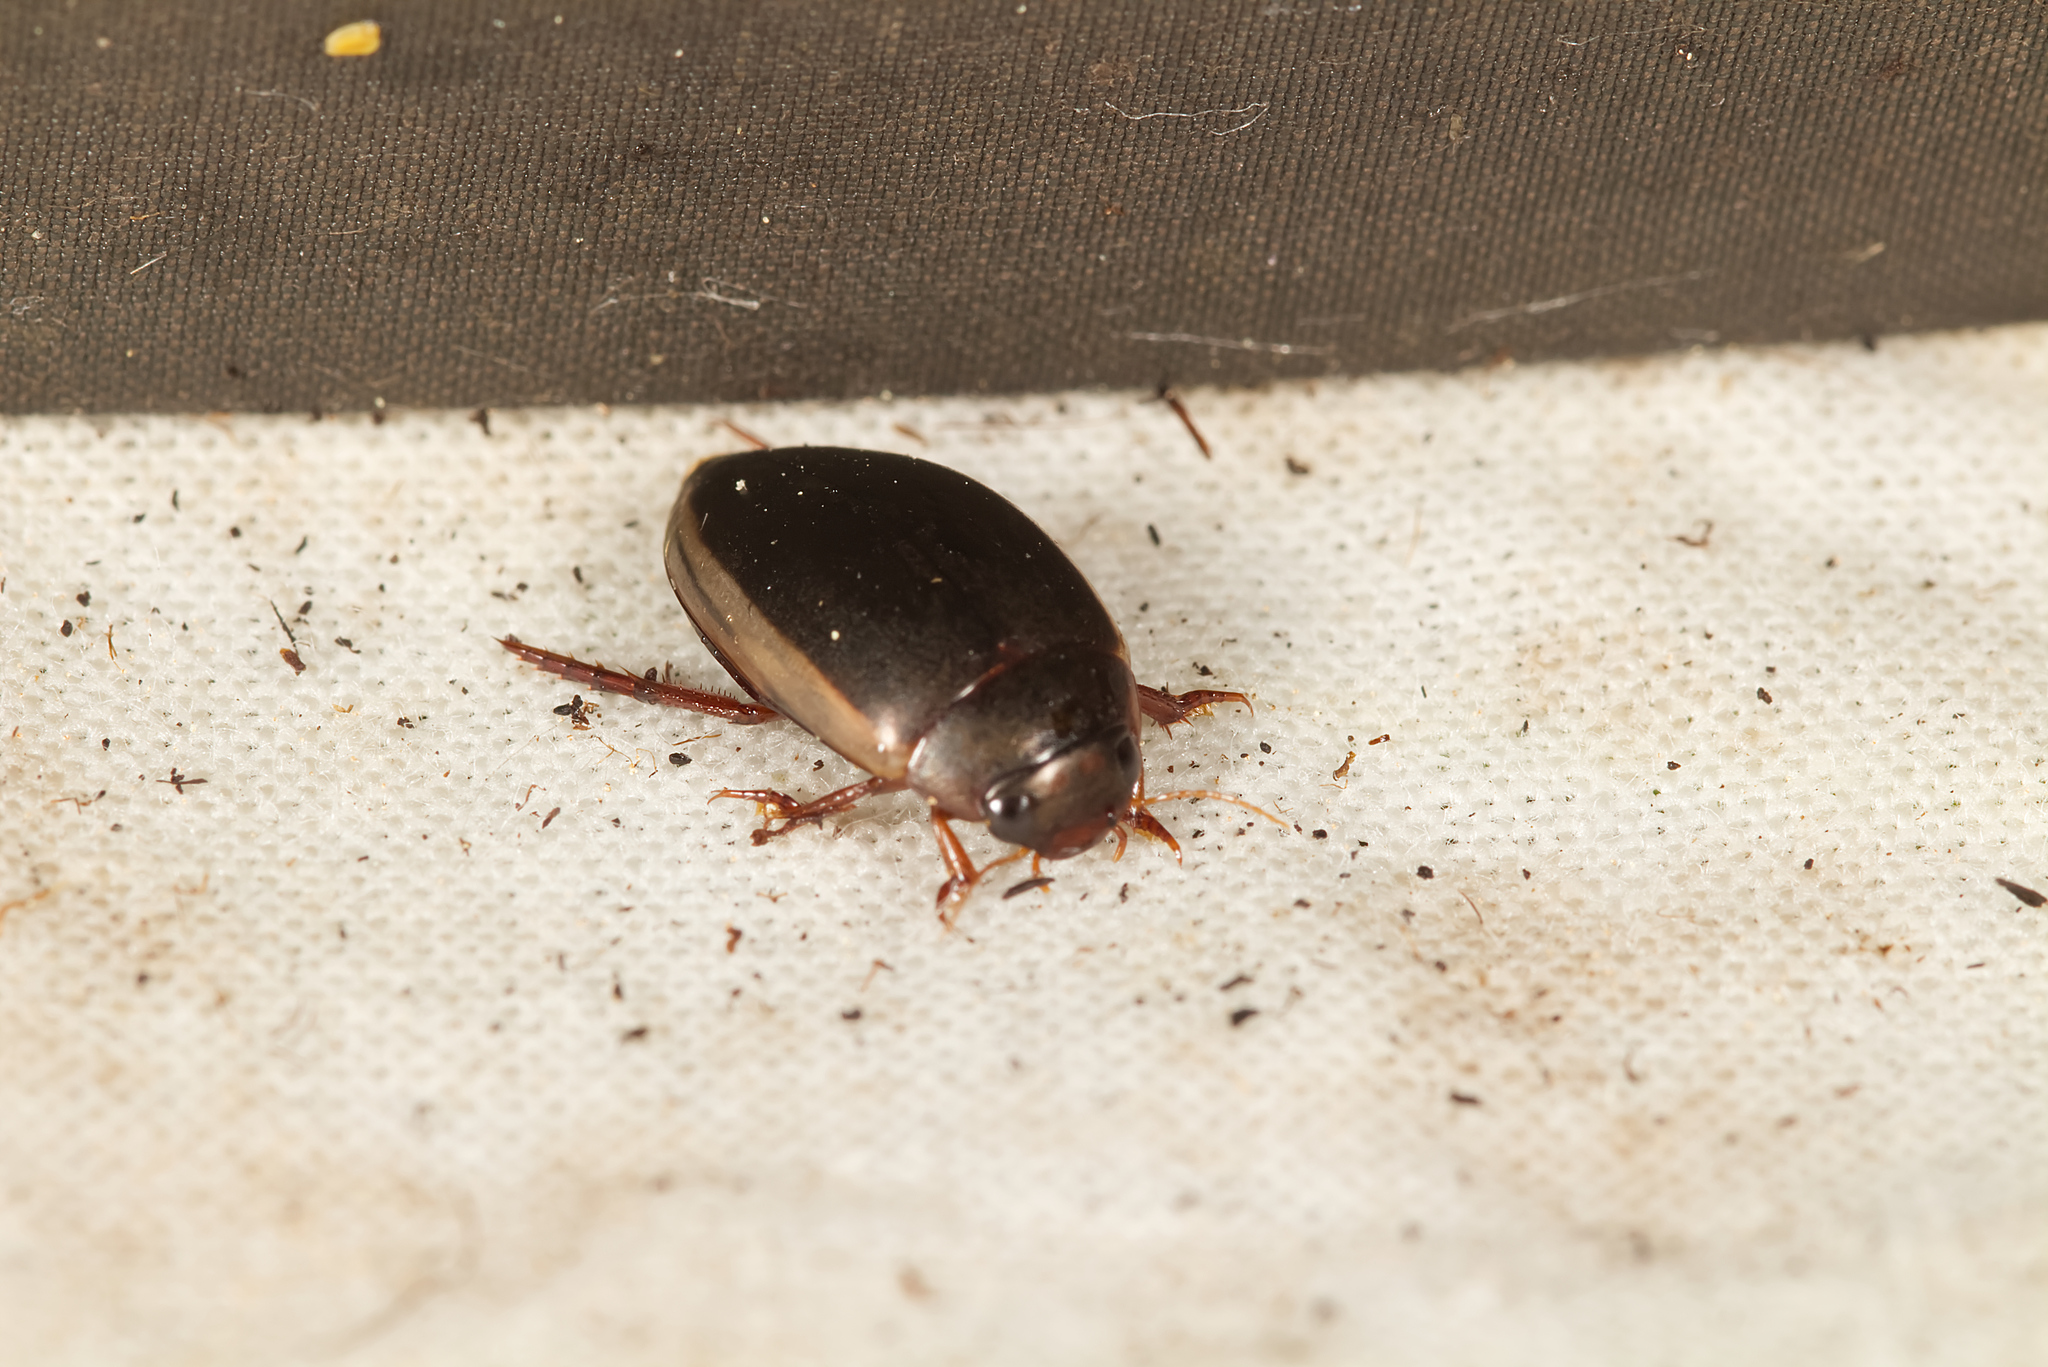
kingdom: Animalia
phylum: Arthropoda
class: Insecta
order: Coleoptera
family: Dytiscidae
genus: Ilybius
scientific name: Ilybius fuliginosus
